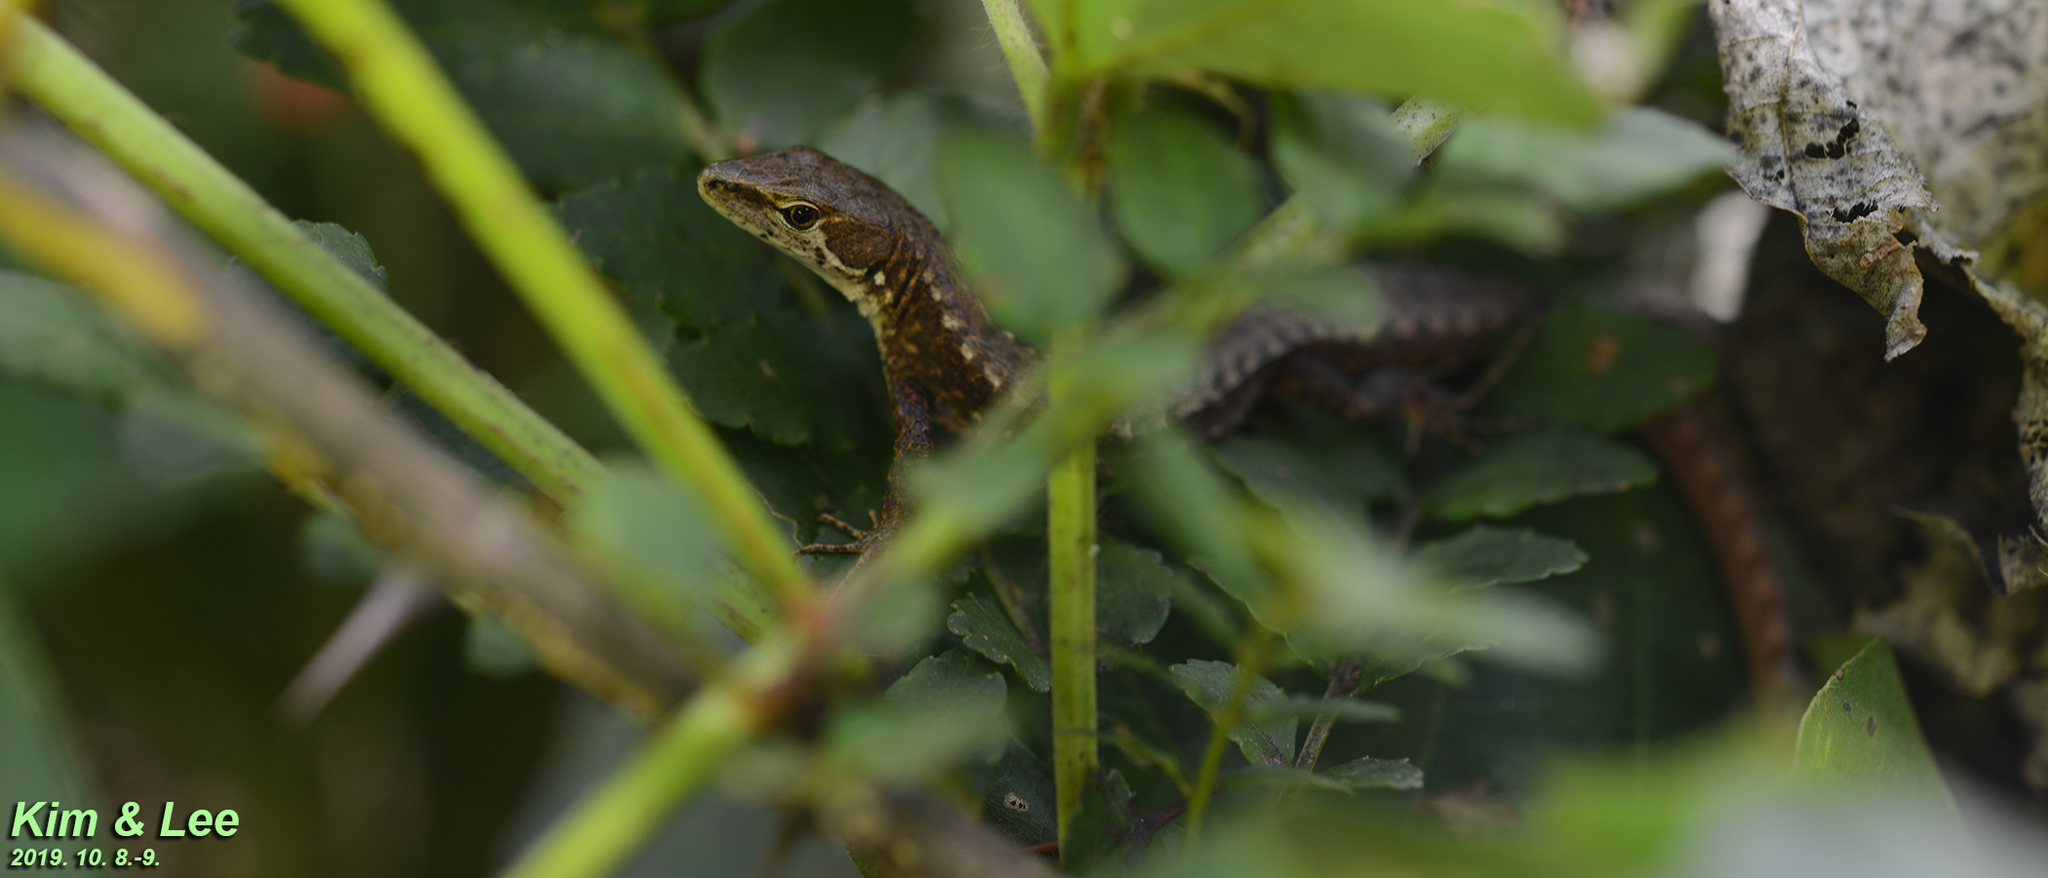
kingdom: Animalia
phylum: Chordata
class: Squamata
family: Lacertidae
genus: Takydromus
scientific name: Takydromus amurensis
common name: Amur grass lizard
